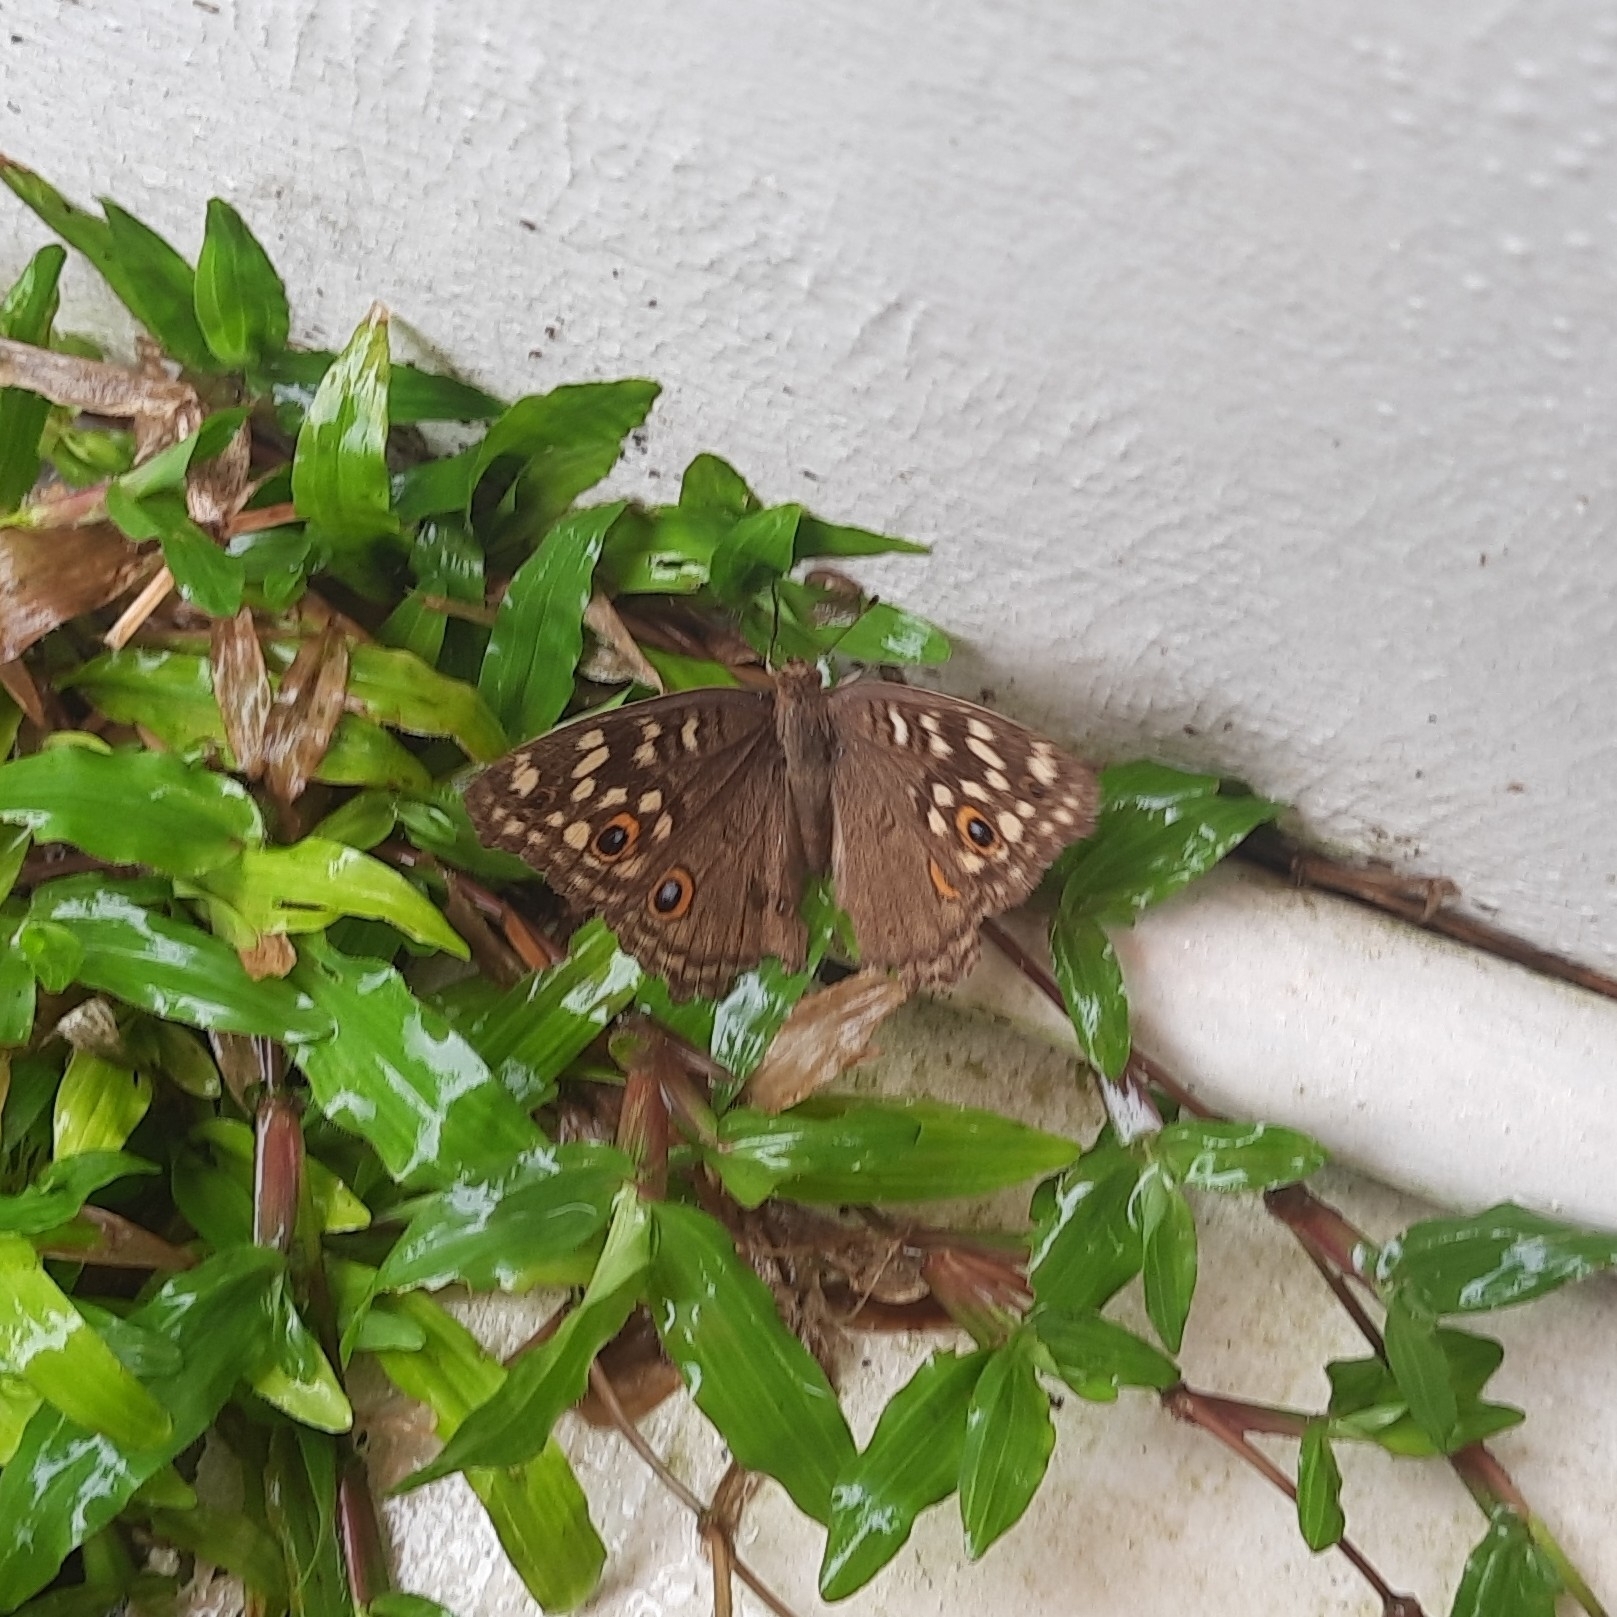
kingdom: Animalia
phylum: Arthropoda
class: Insecta
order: Lepidoptera
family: Nymphalidae
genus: Junonia
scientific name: Junonia lemonias
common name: Lemon pansy
